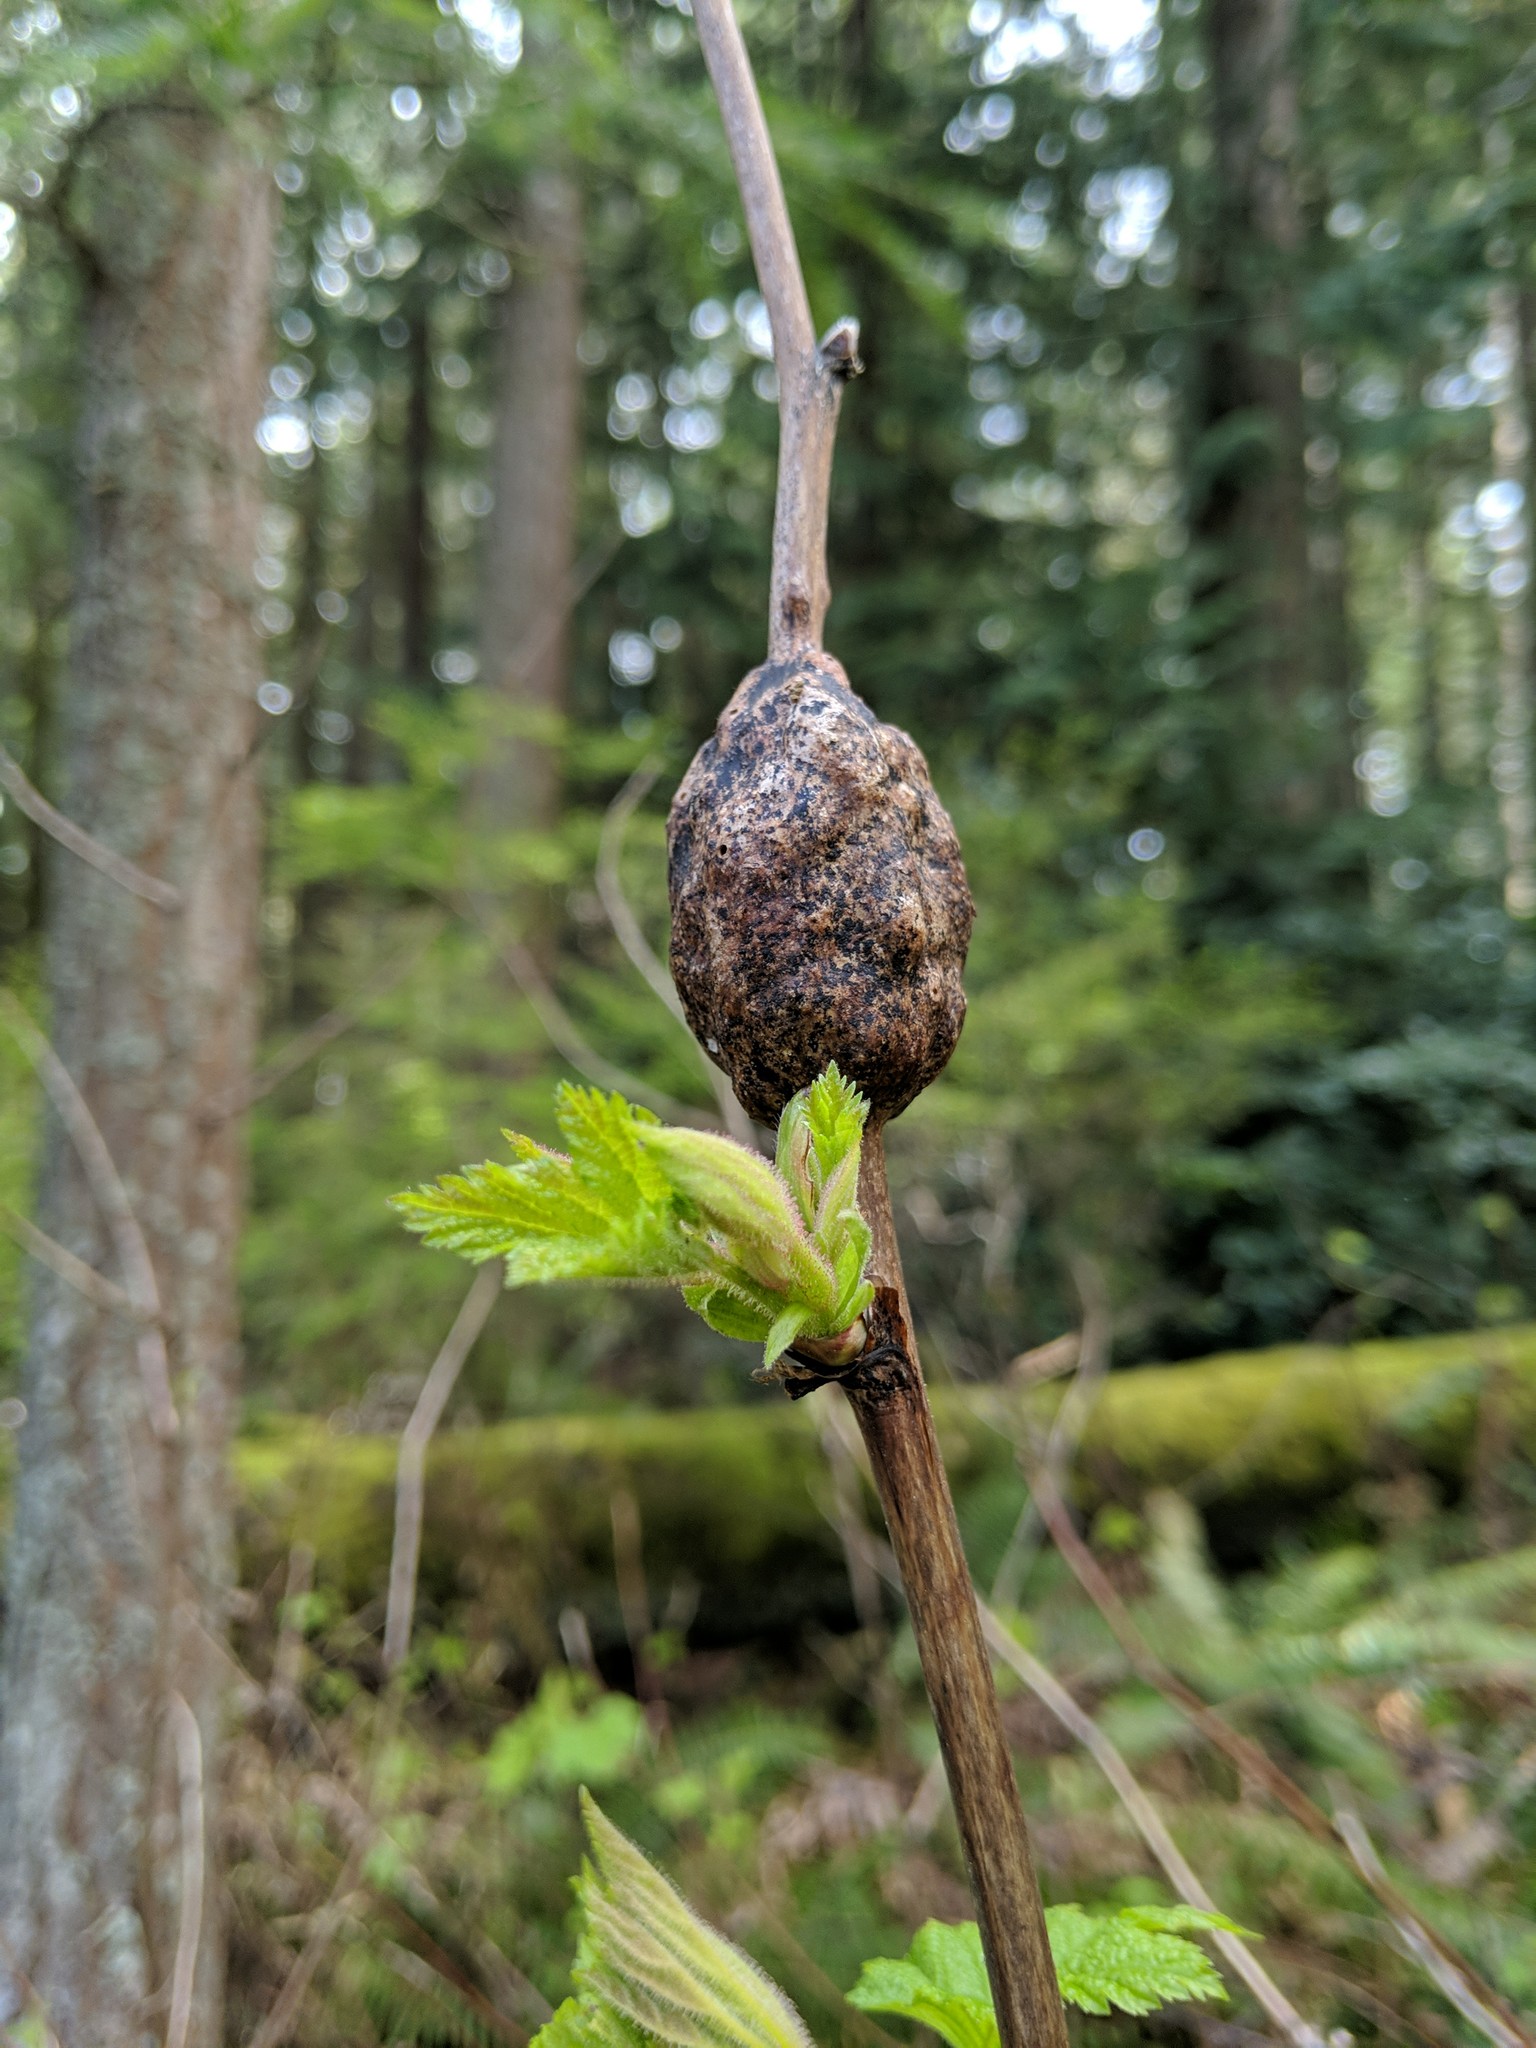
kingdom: Animalia
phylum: Arthropoda
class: Insecta
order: Hymenoptera
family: Cynipidae
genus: Diastrophus
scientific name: Diastrophus
